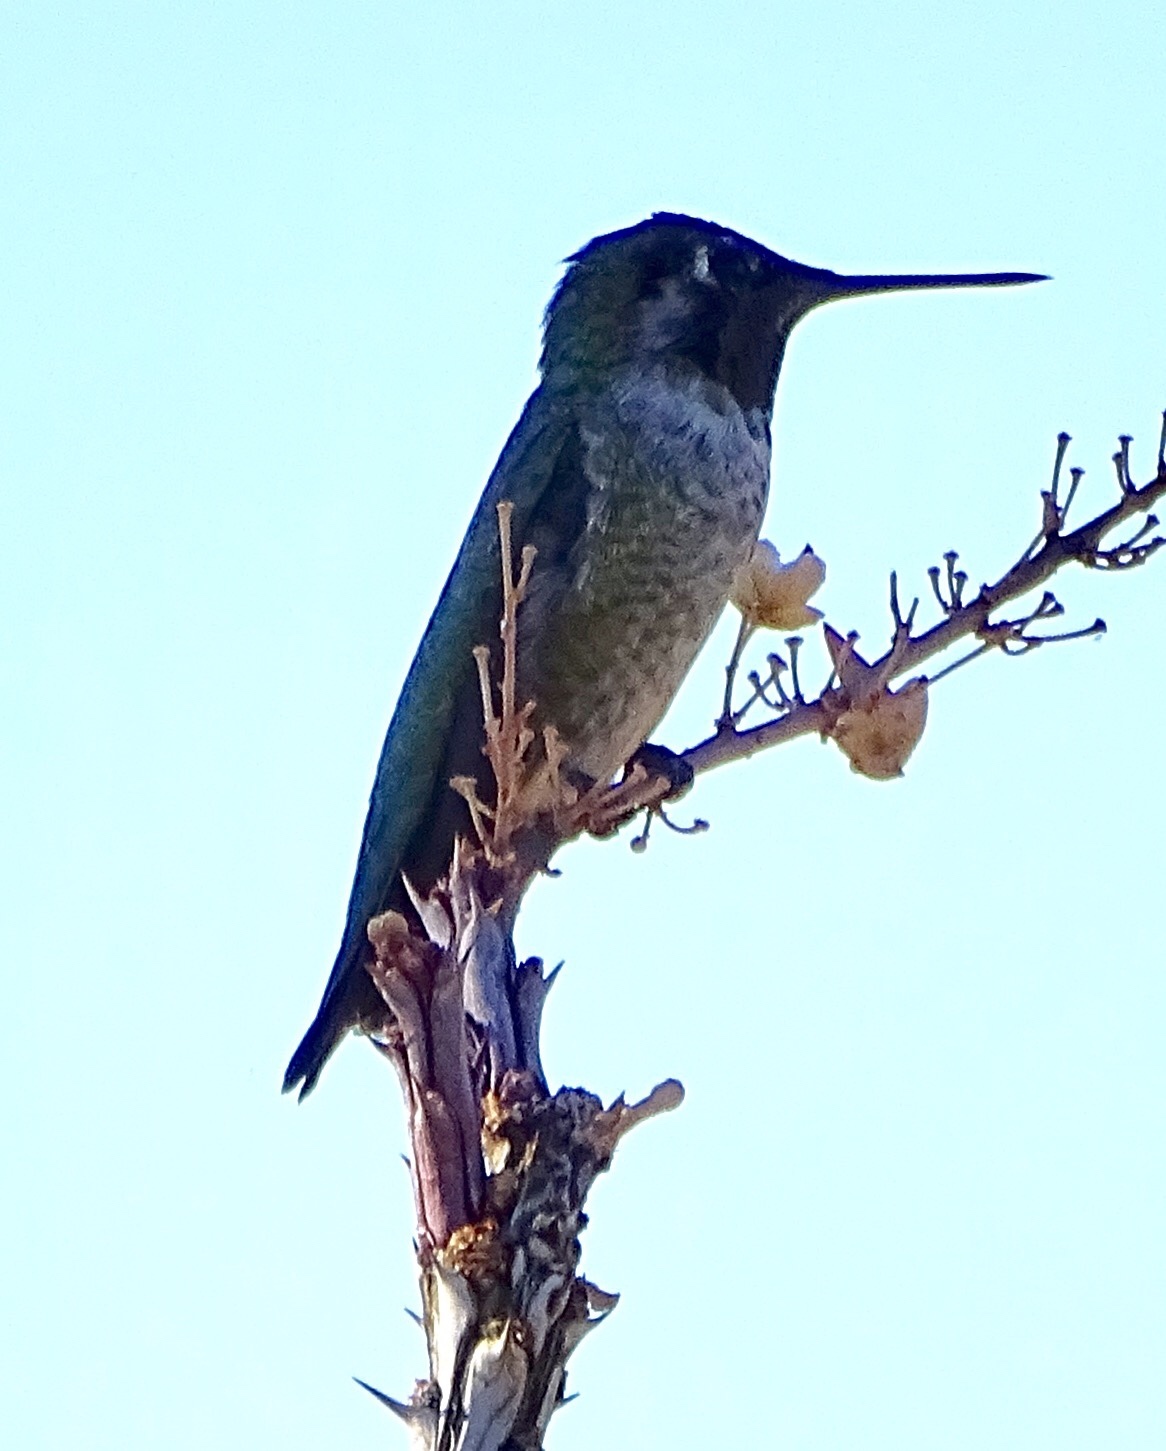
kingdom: Animalia
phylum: Chordata
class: Aves
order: Apodiformes
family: Trochilidae
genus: Calypte
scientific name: Calypte anna
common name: Anna's hummingbird
